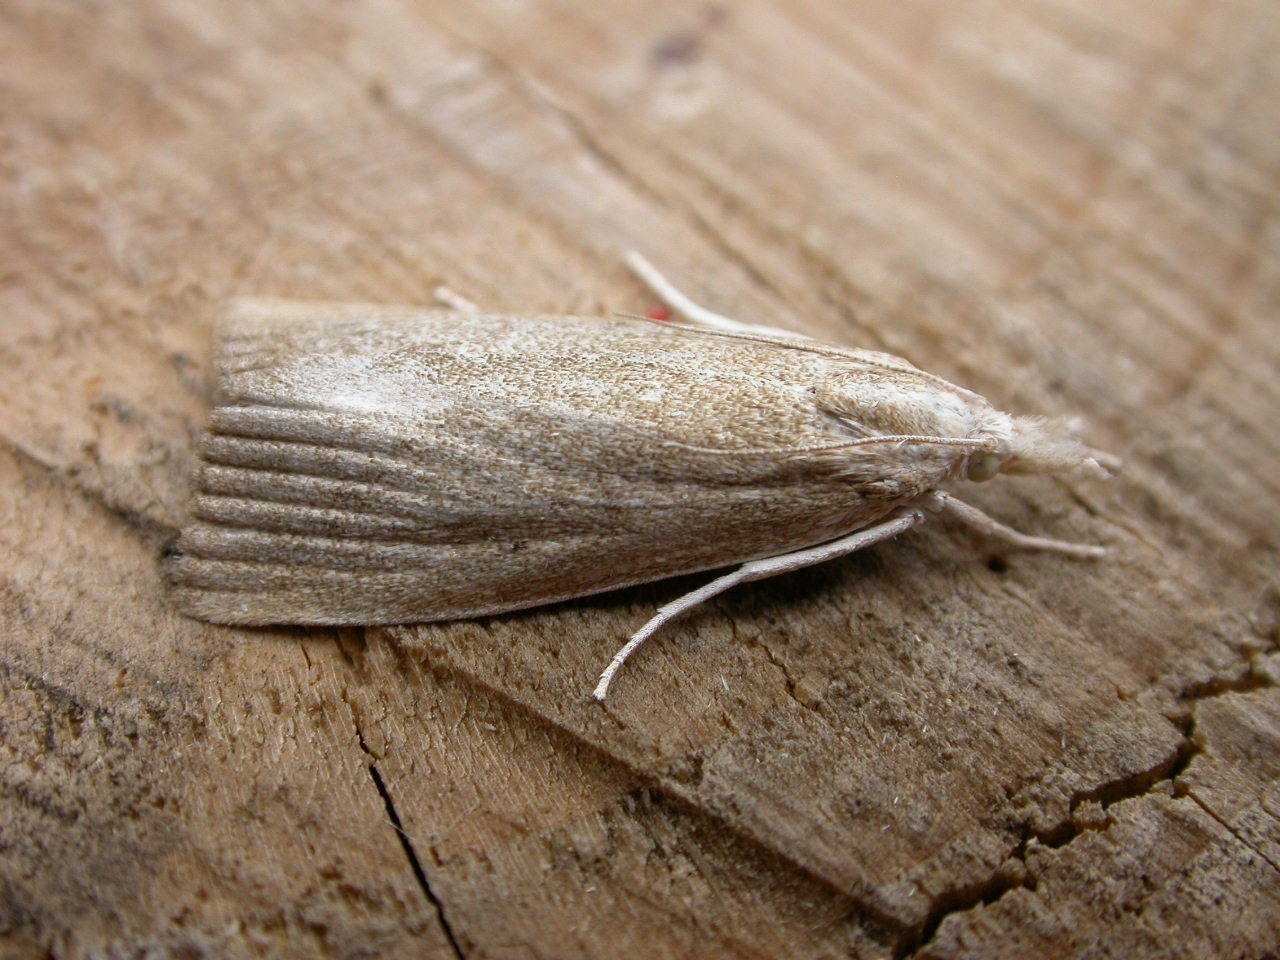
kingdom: Animalia
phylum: Arthropoda
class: Insecta
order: Lepidoptera
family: Crambidae
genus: Calamotropha
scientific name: Calamotropha paludella
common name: Bulrush veneer
